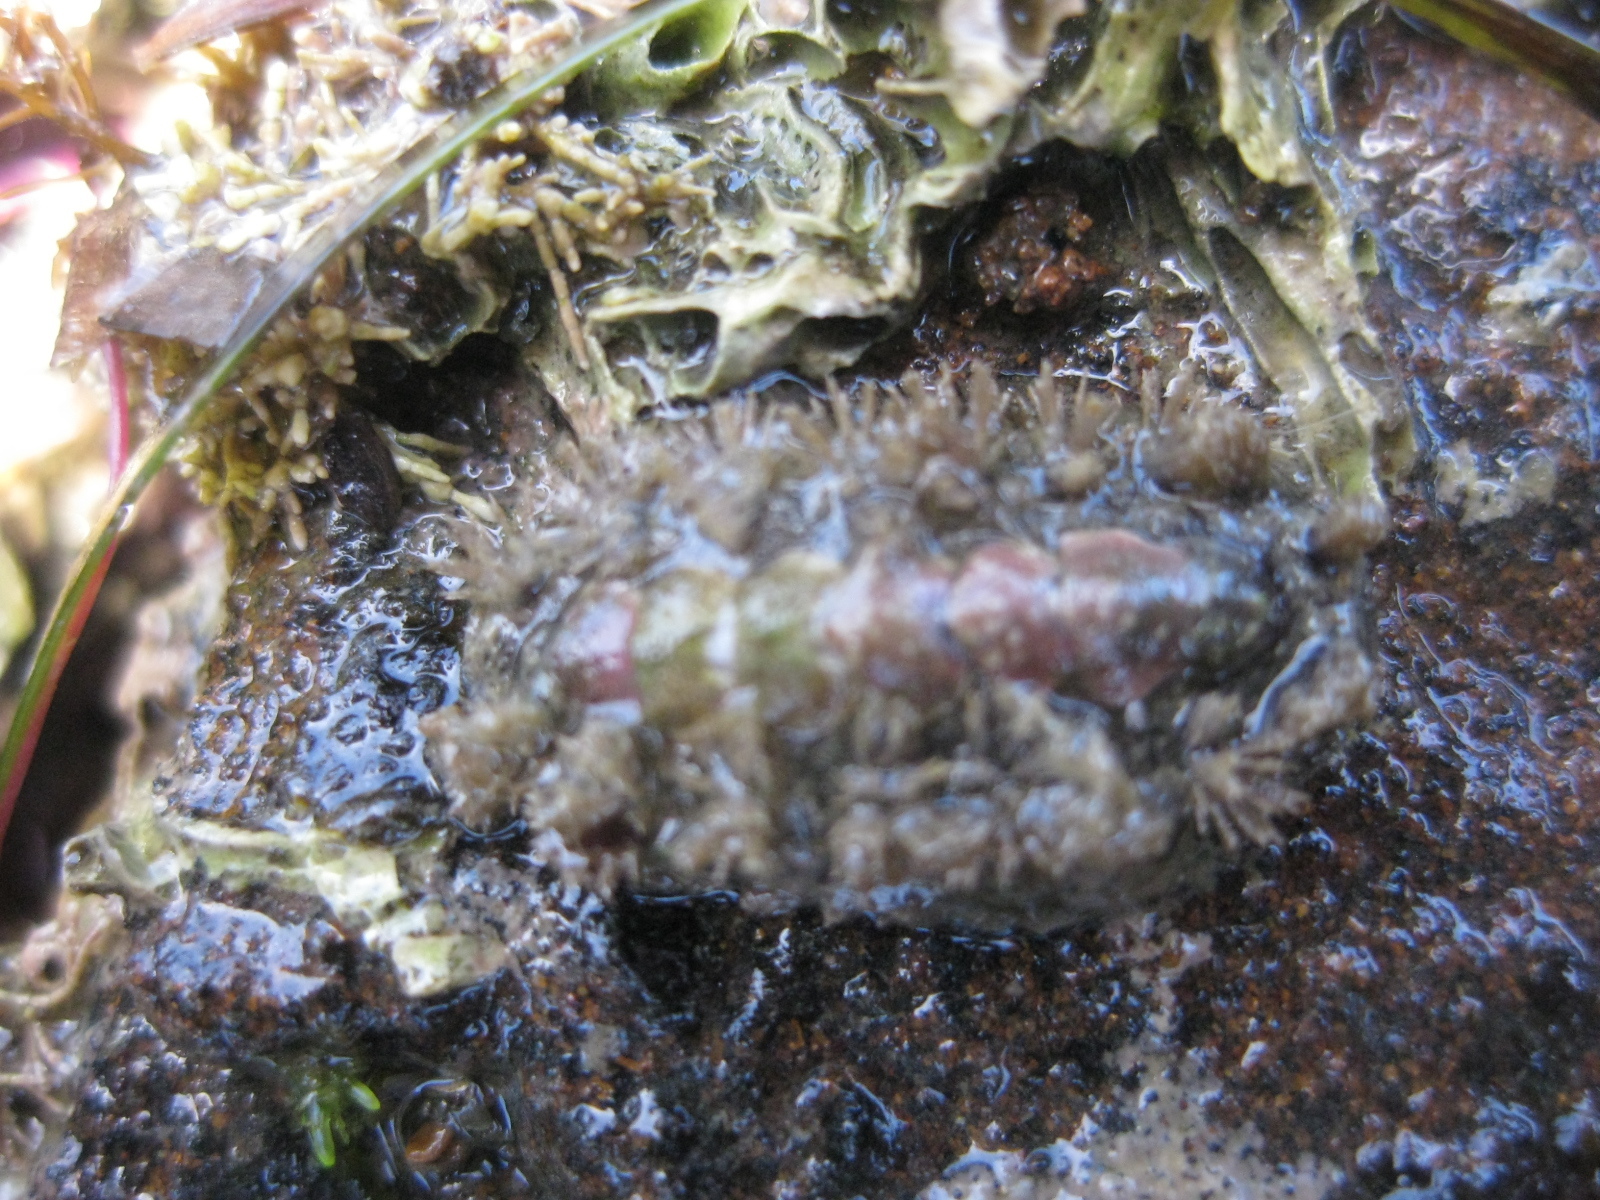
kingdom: Animalia
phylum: Mollusca
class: Polyplacophora
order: Chitonida
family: Acanthochitonidae
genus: Acanthochitona
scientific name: Acanthochitona zelandica
